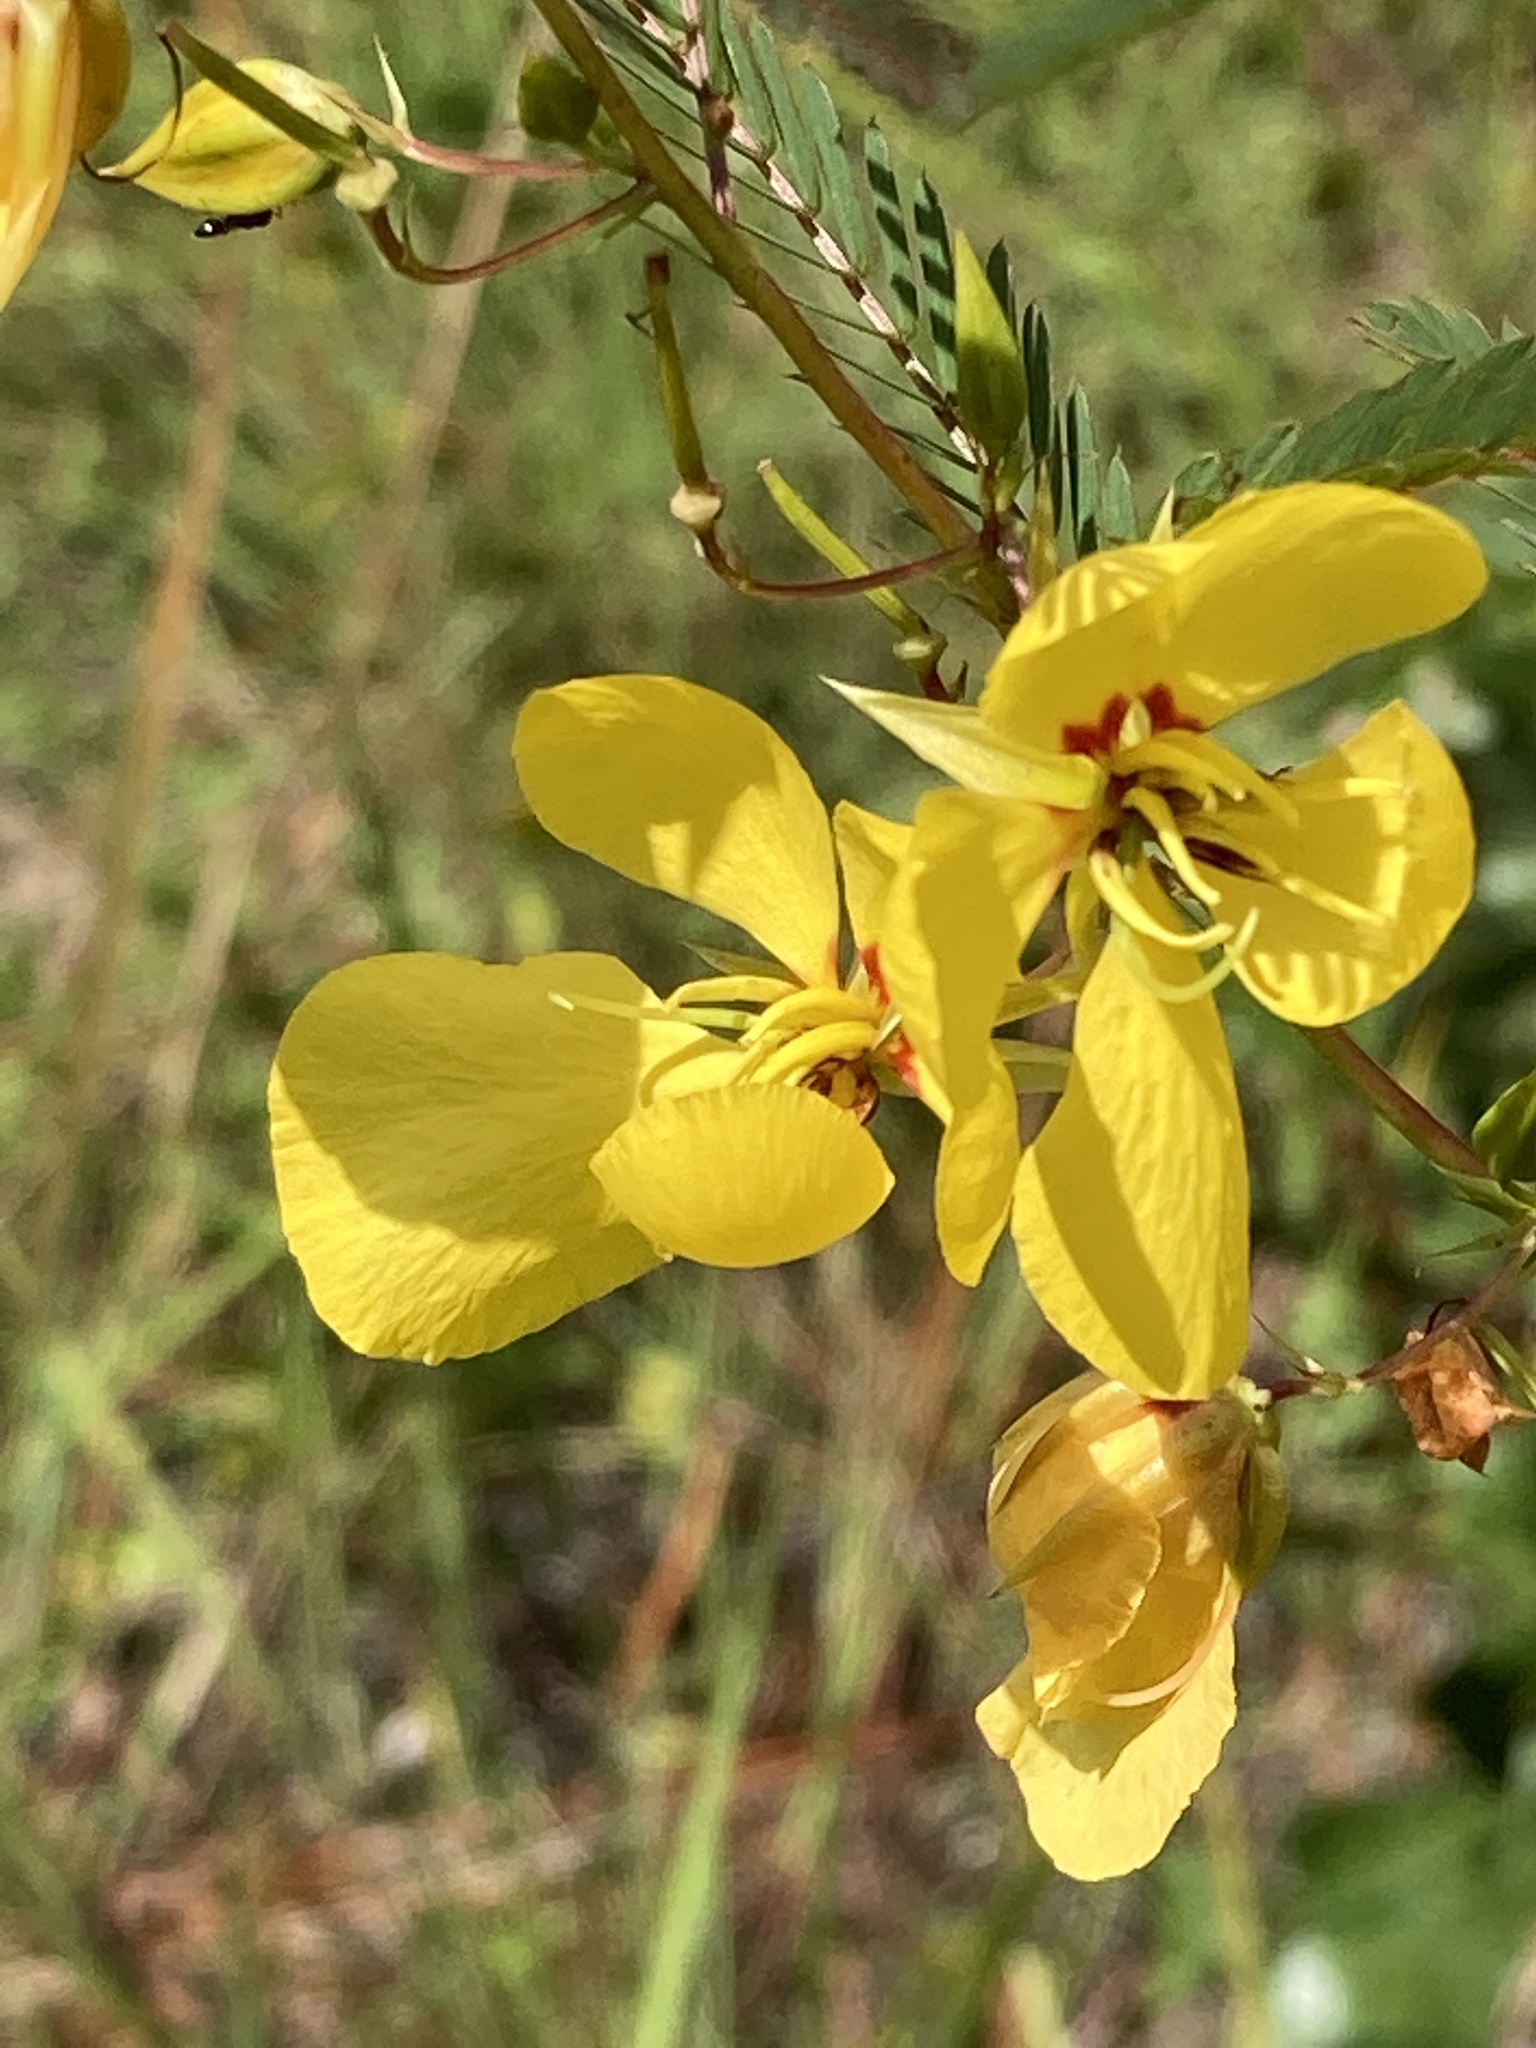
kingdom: Plantae
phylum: Tracheophyta
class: Magnoliopsida
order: Fabales
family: Fabaceae
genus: Chamaecrista
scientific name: Chamaecrista fasciculata
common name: Golden cassia
